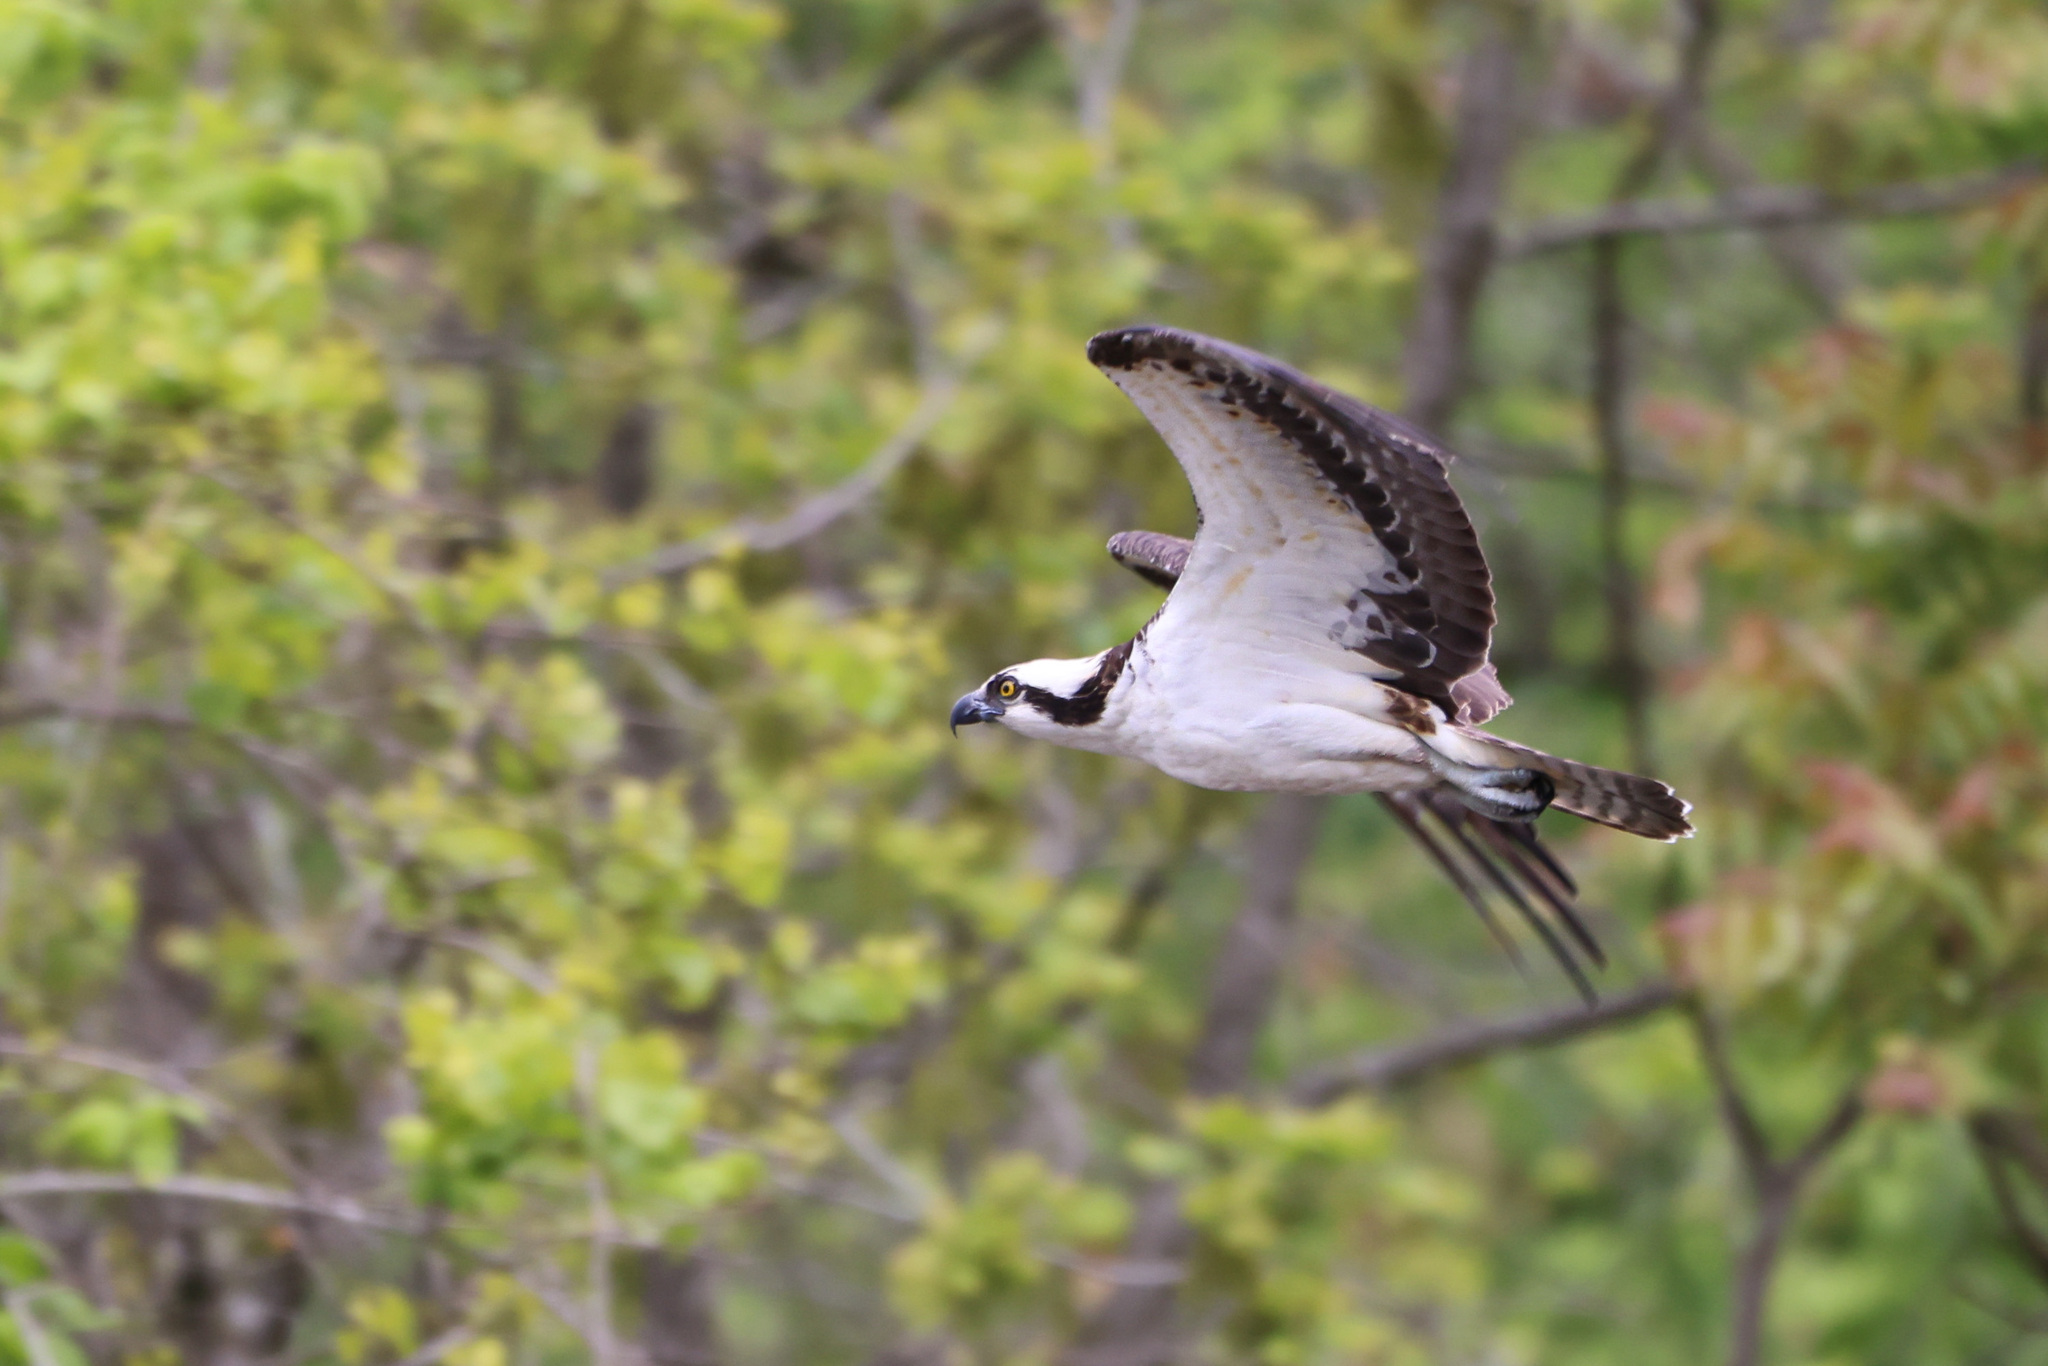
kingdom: Animalia
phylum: Chordata
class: Aves
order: Accipitriformes
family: Pandionidae
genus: Pandion
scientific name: Pandion haliaetus
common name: Osprey
